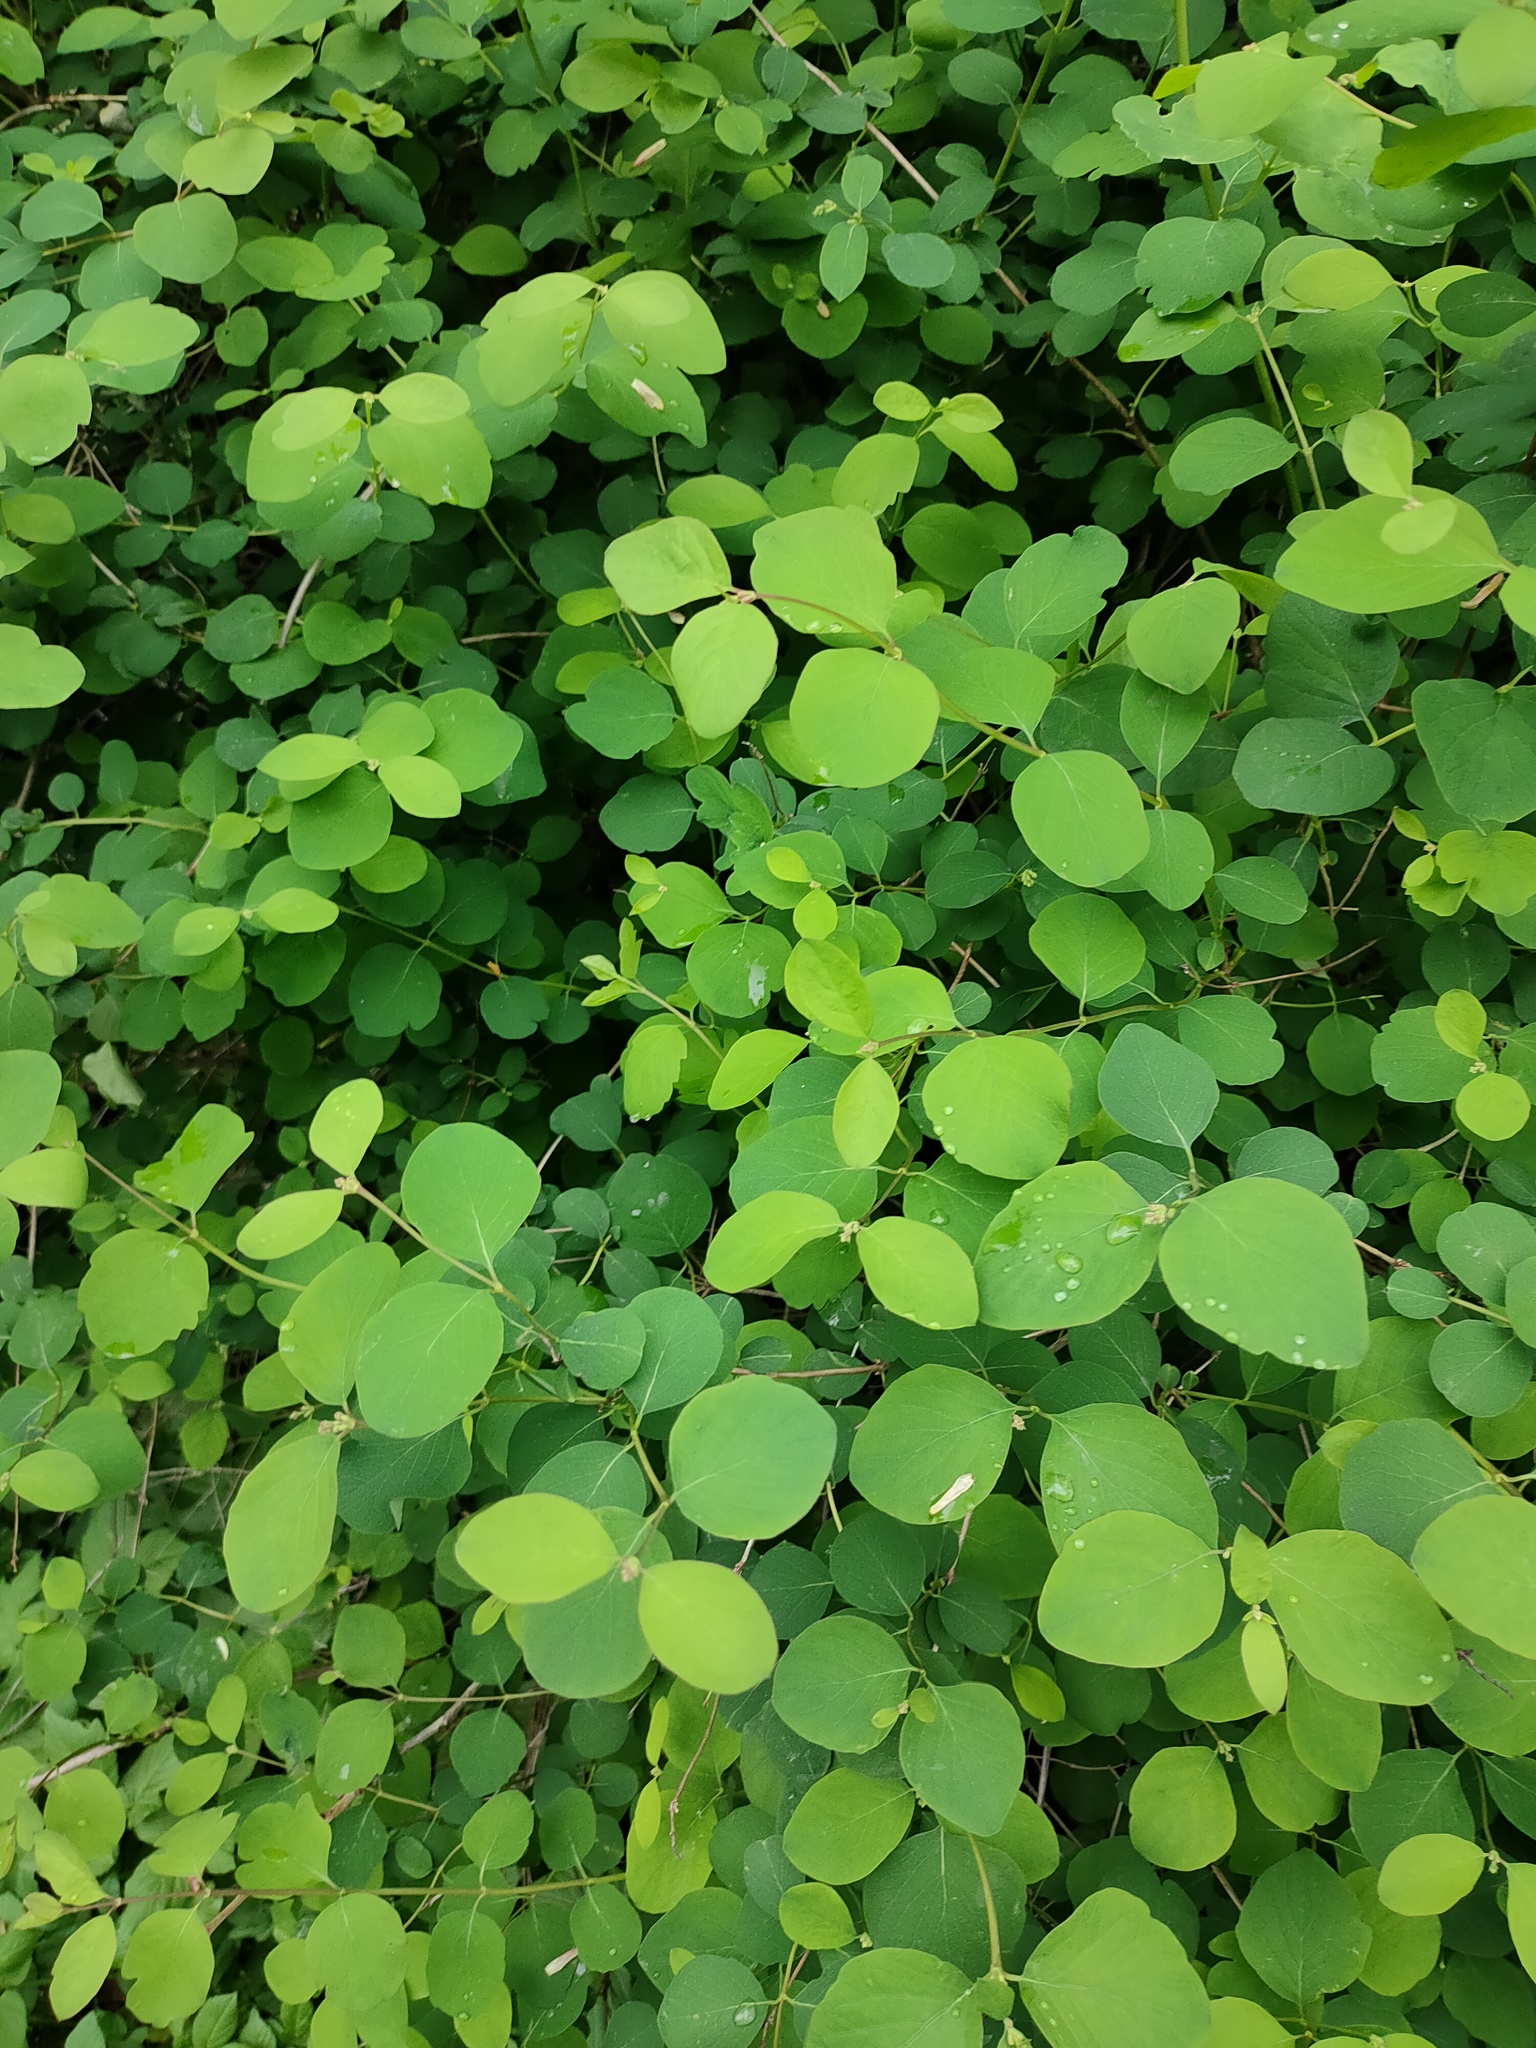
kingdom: Plantae
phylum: Tracheophyta
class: Magnoliopsida
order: Dipsacales
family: Caprifoliaceae
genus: Symphoricarpos
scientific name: Symphoricarpos albus
